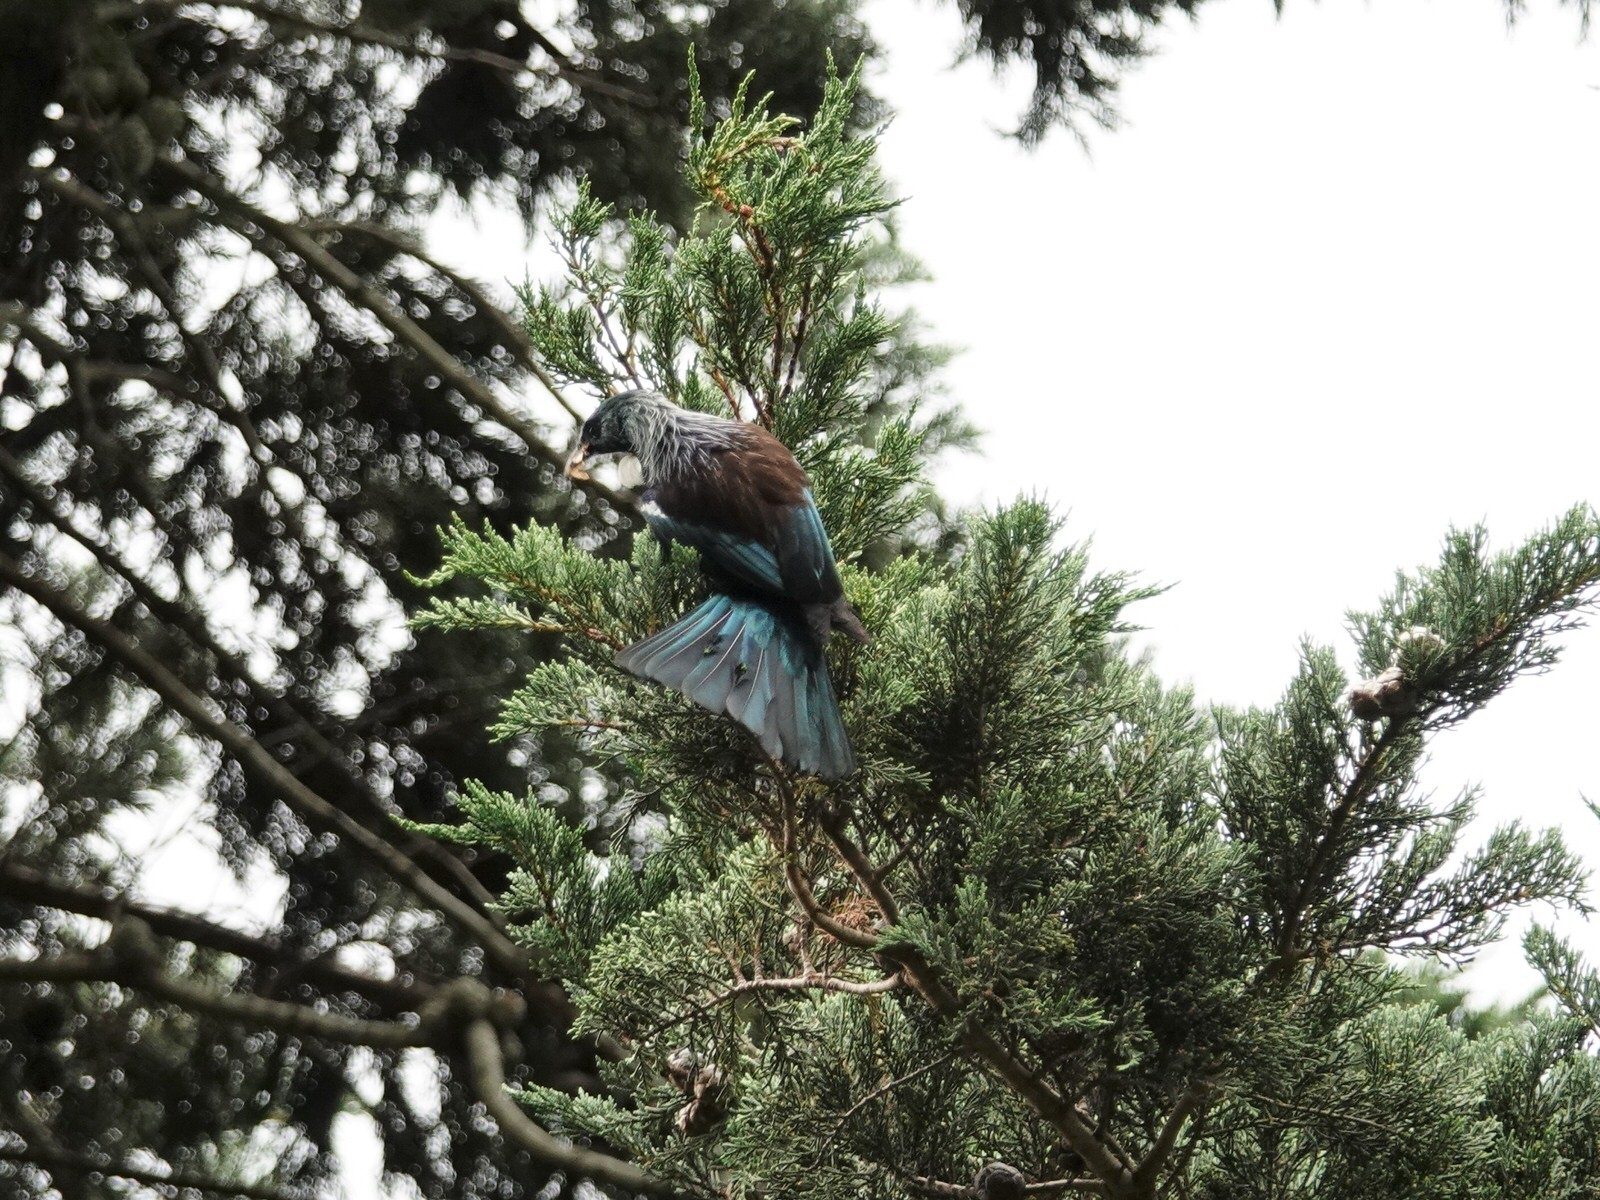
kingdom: Animalia
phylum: Chordata
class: Aves
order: Passeriformes
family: Meliphagidae
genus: Prosthemadera
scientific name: Prosthemadera novaeseelandiae
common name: Tui
